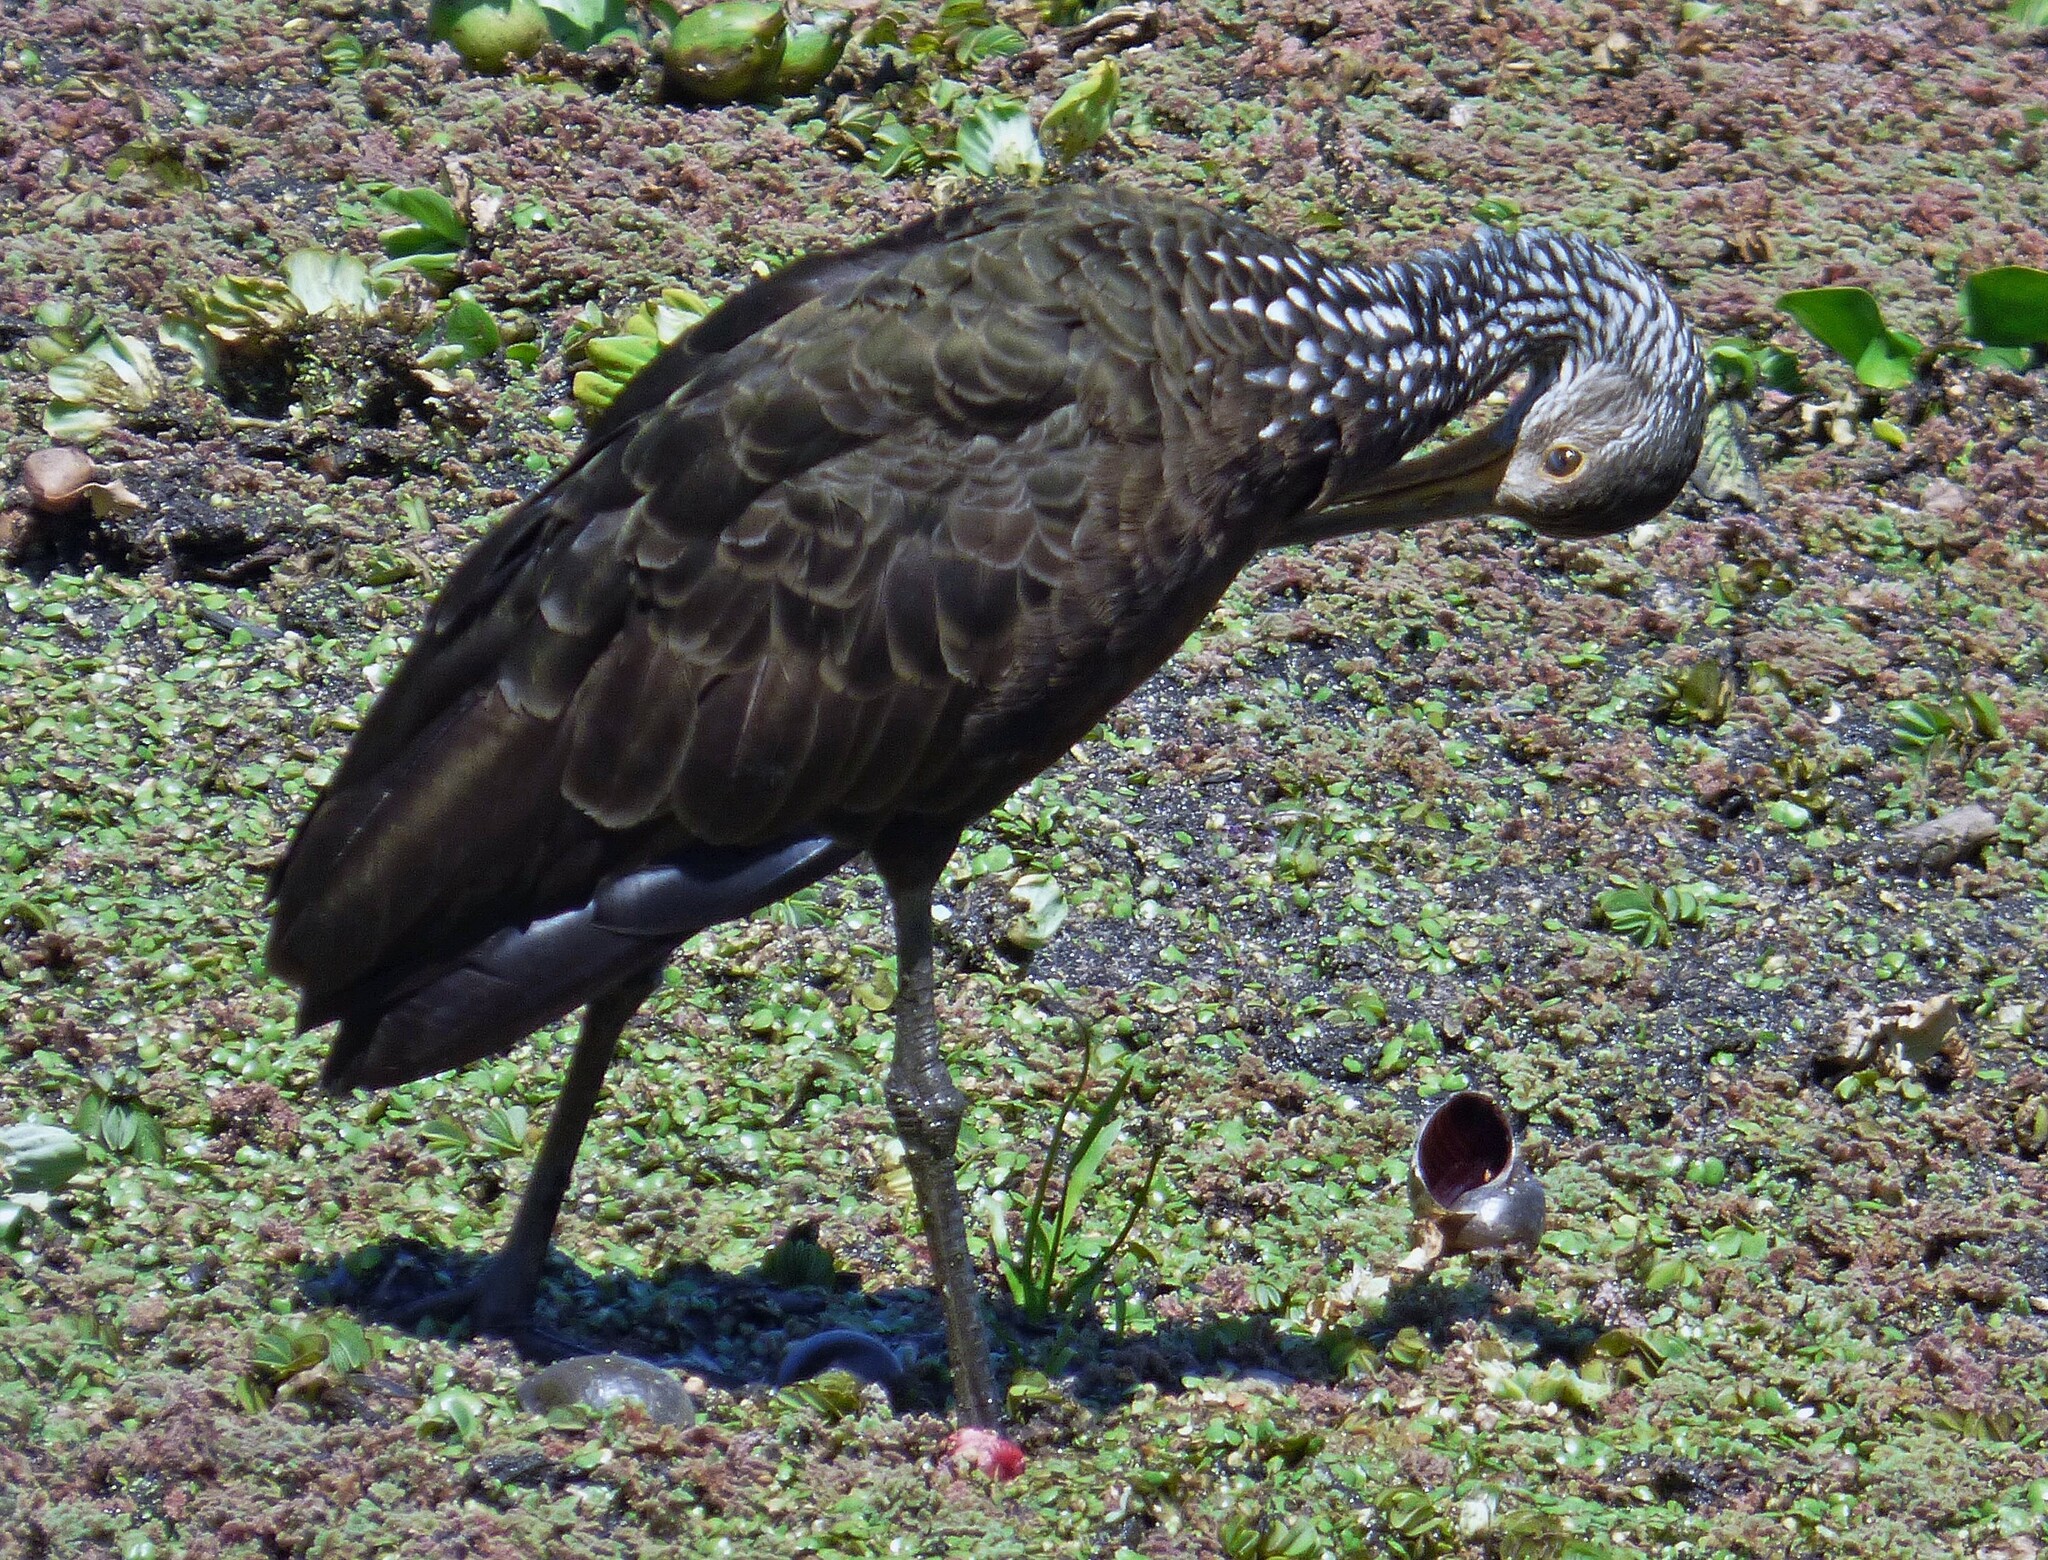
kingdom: Animalia
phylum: Chordata
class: Aves
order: Gruiformes
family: Aramidae
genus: Aramus
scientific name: Aramus guarauna
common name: Limpkin
